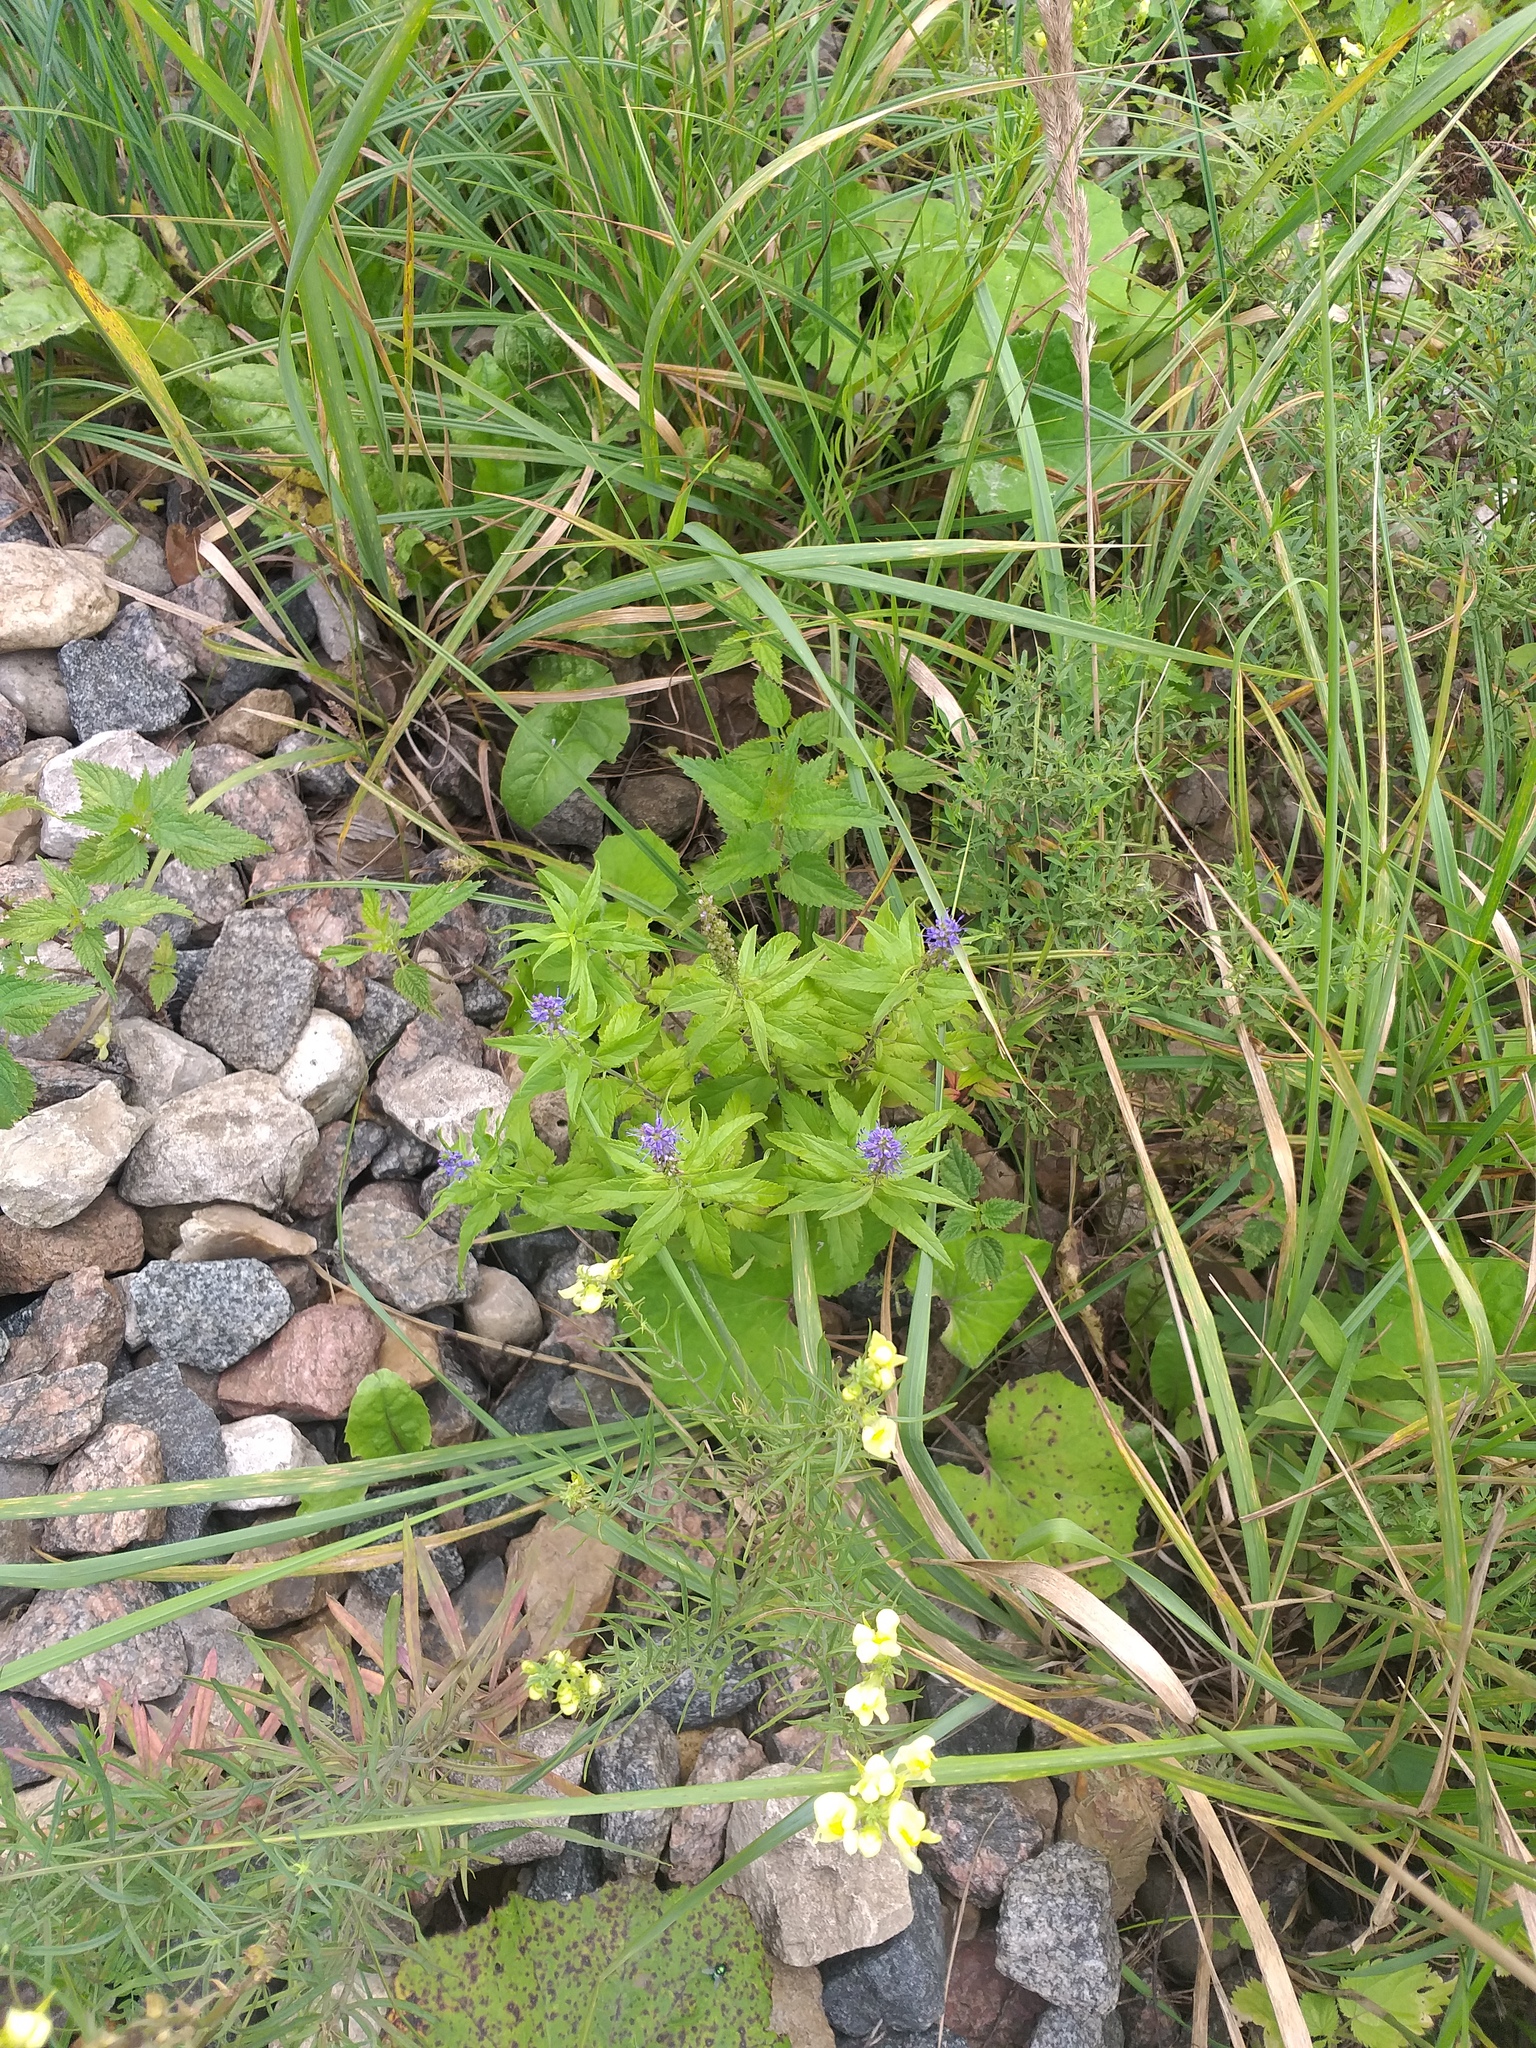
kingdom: Plantae
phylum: Tracheophyta
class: Magnoliopsida
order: Lamiales
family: Plantaginaceae
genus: Veronica
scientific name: Veronica longifolia
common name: Garden speedwell
